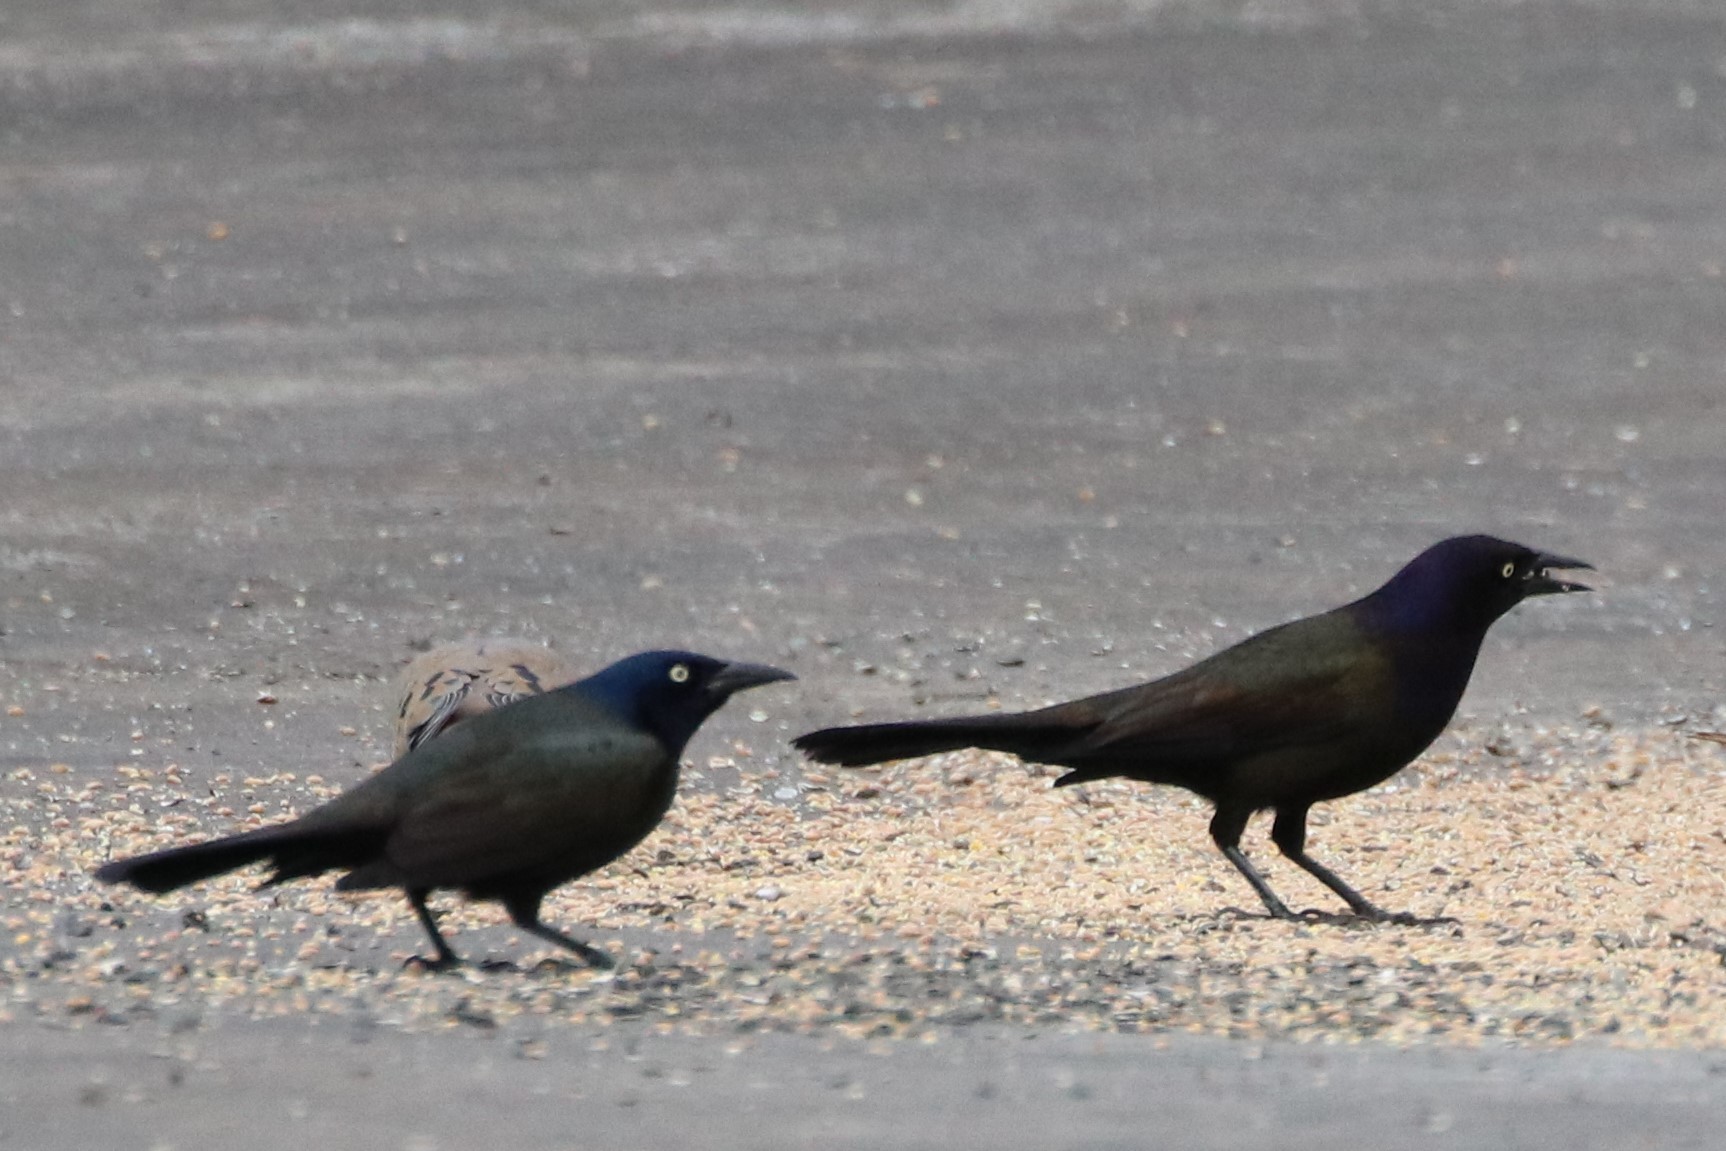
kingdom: Animalia
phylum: Chordata
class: Aves
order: Passeriformes
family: Icteridae
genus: Quiscalus
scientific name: Quiscalus quiscula
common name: Common grackle
